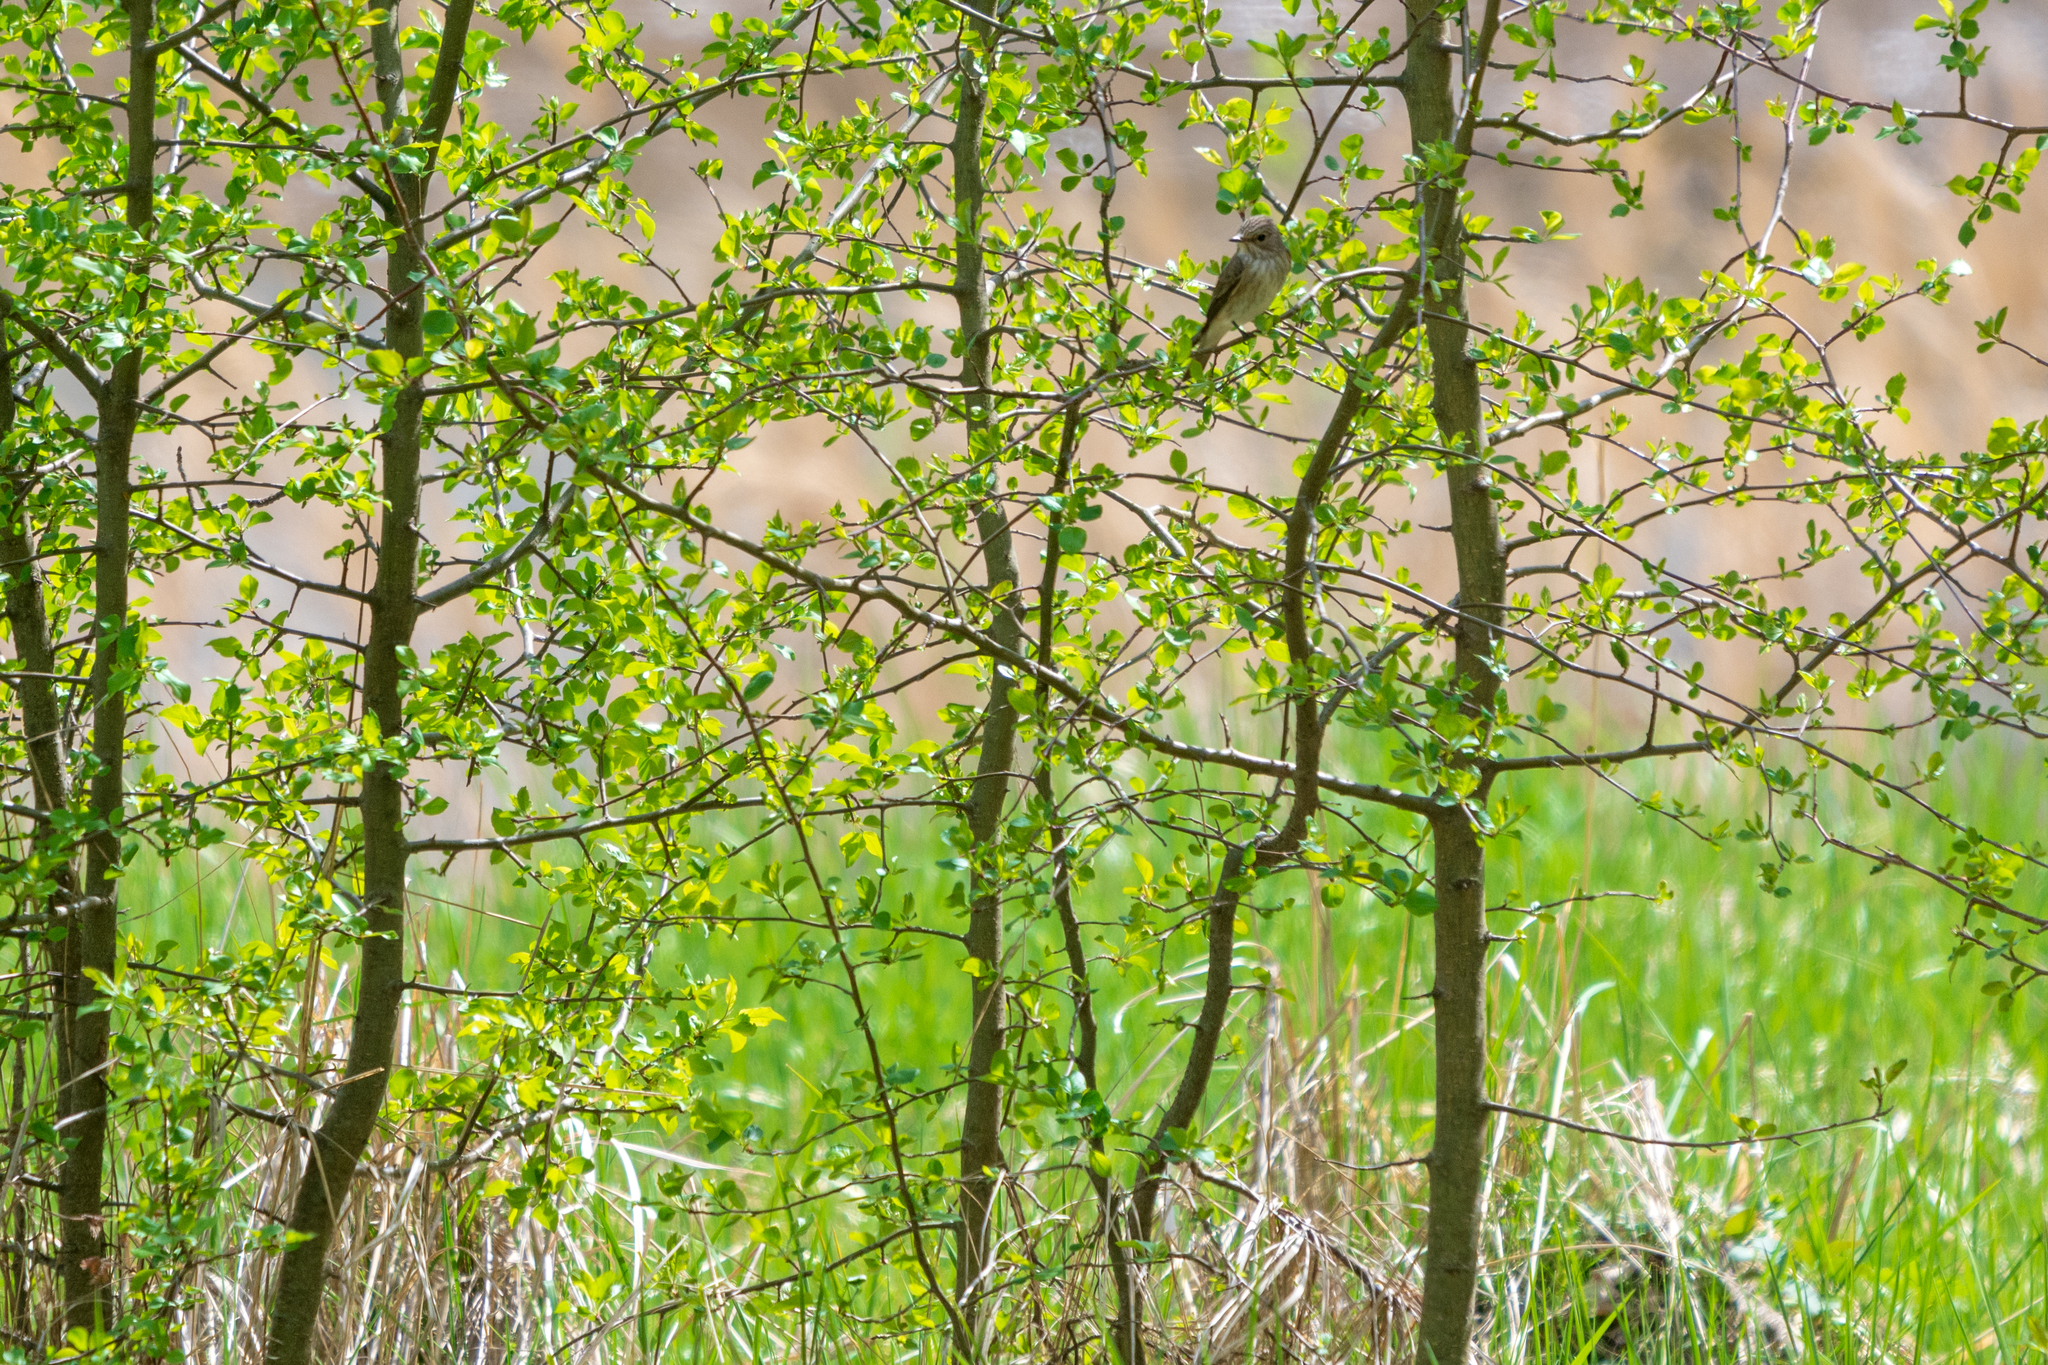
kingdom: Animalia
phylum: Chordata
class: Aves
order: Passeriformes
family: Muscicapidae
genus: Muscicapa
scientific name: Muscicapa striata
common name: Spotted flycatcher
